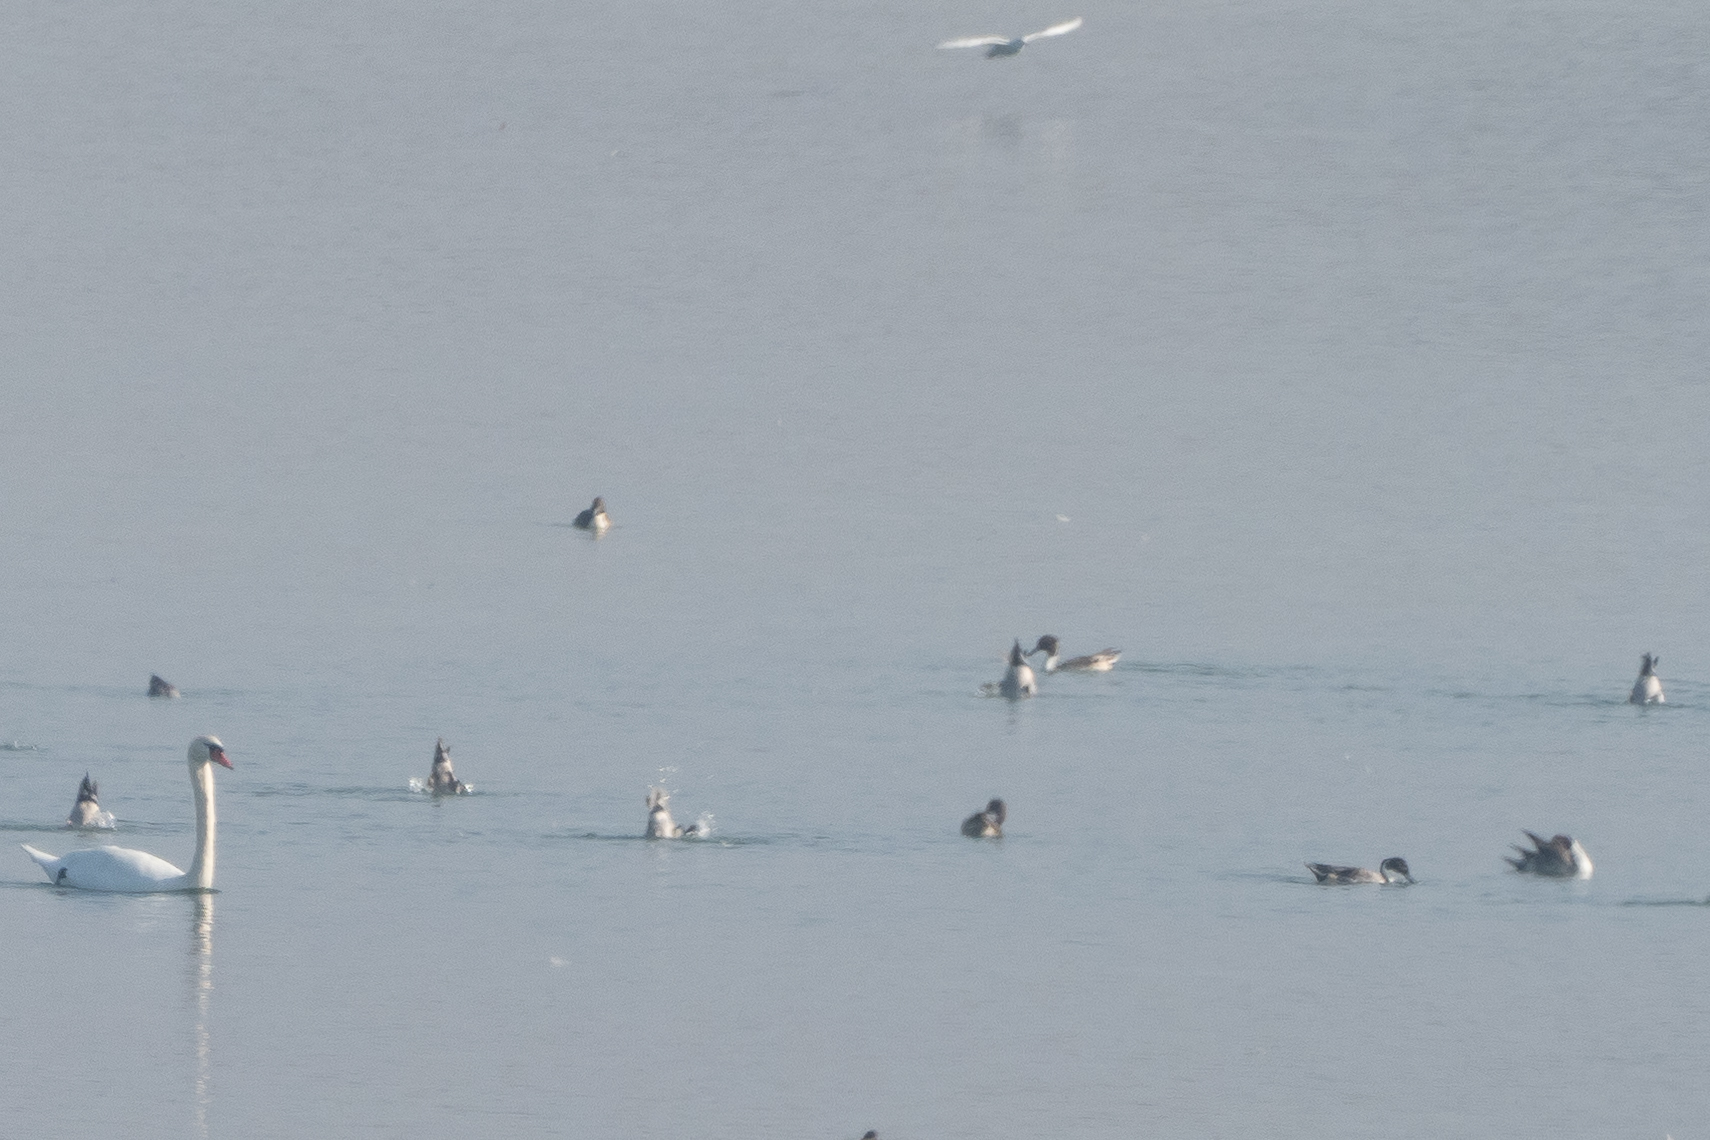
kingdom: Animalia
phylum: Chordata
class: Aves
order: Anseriformes
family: Anatidae
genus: Anas
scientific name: Anas acuta
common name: Northern pintail
